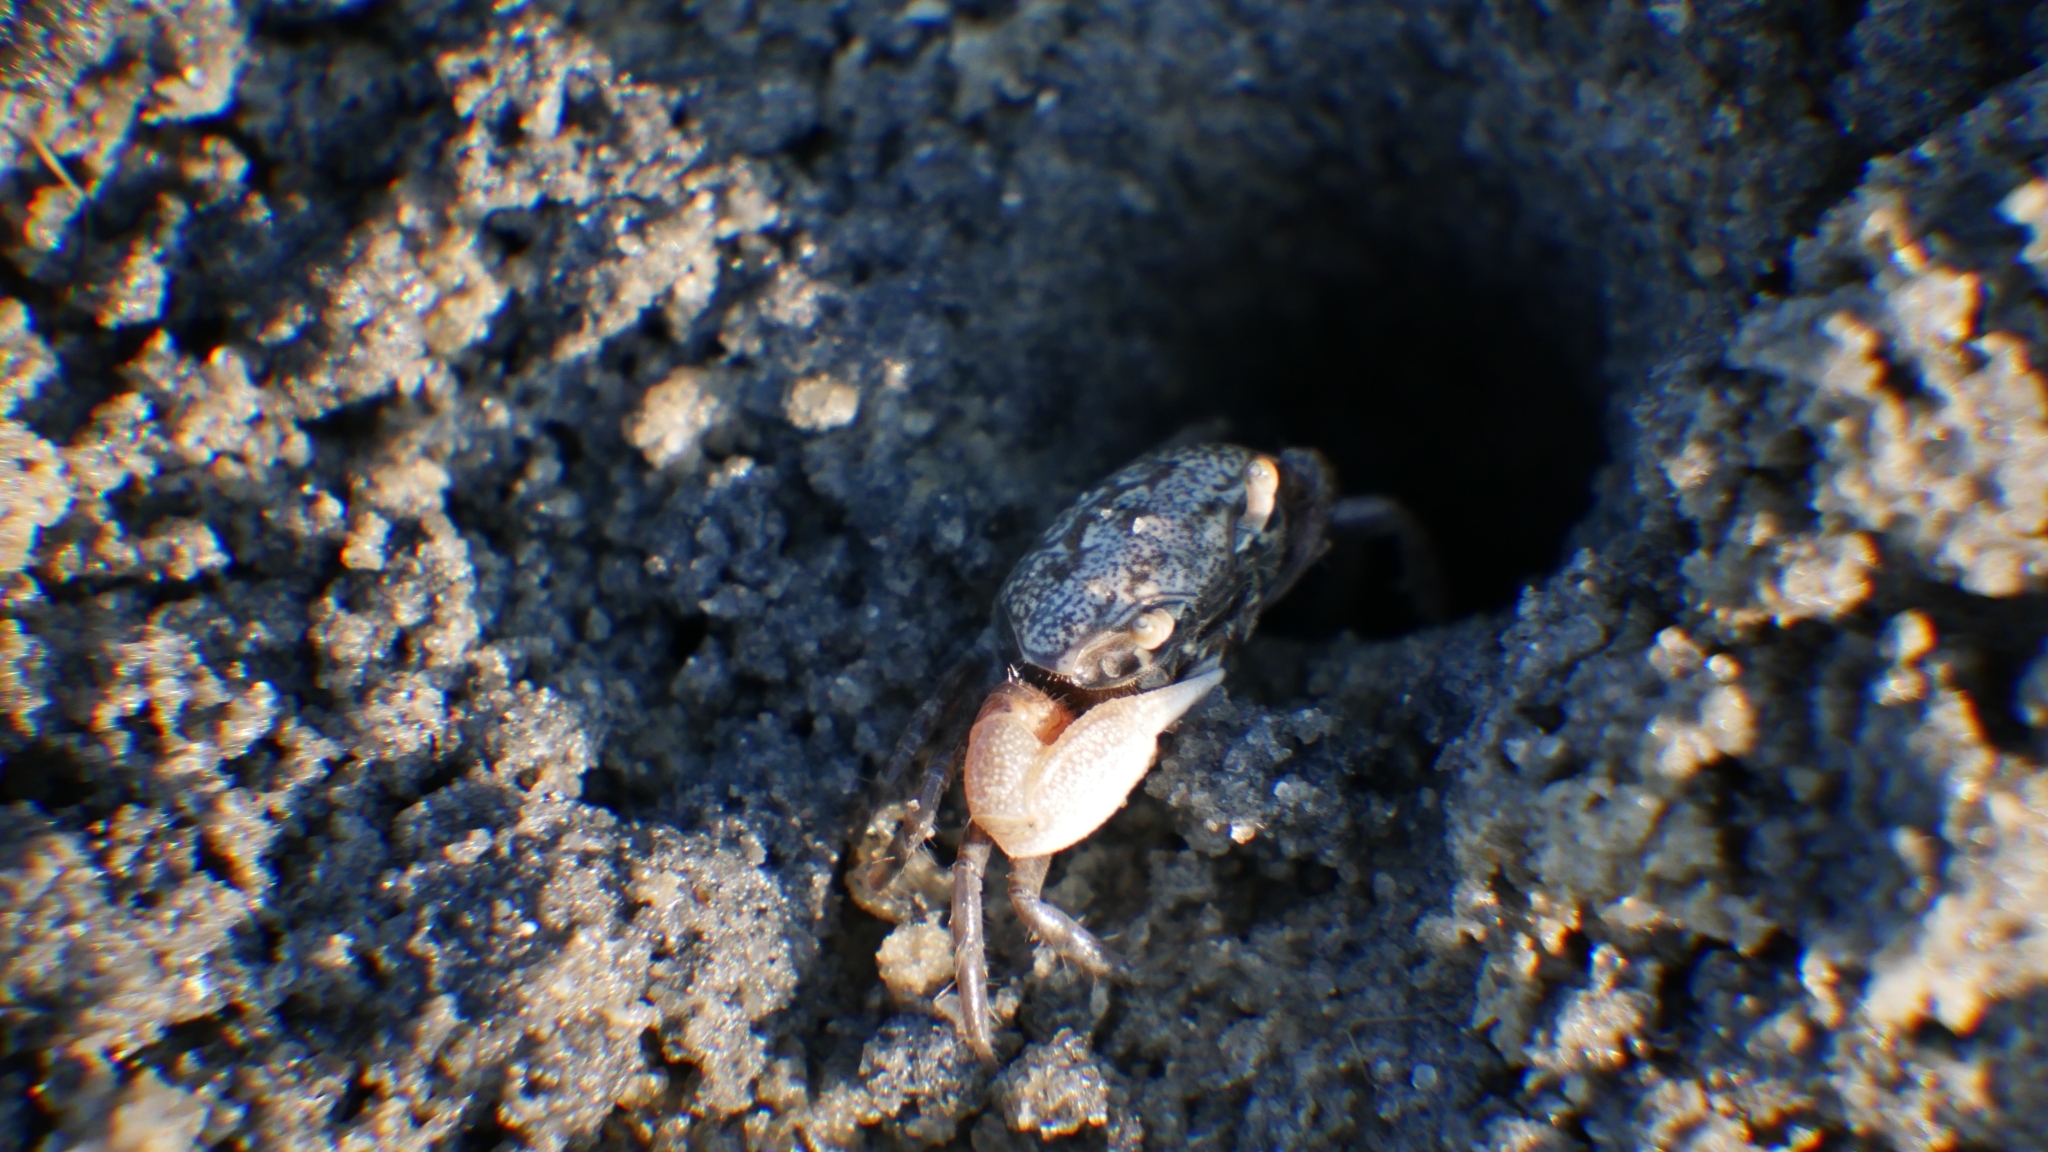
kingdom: Animalia
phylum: Arthropoda
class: Malacostraca
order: Decapoda
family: Ocypodidae
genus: Leptuca
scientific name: Leptuca pugilator
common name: Atlantic sand fiddler crab
